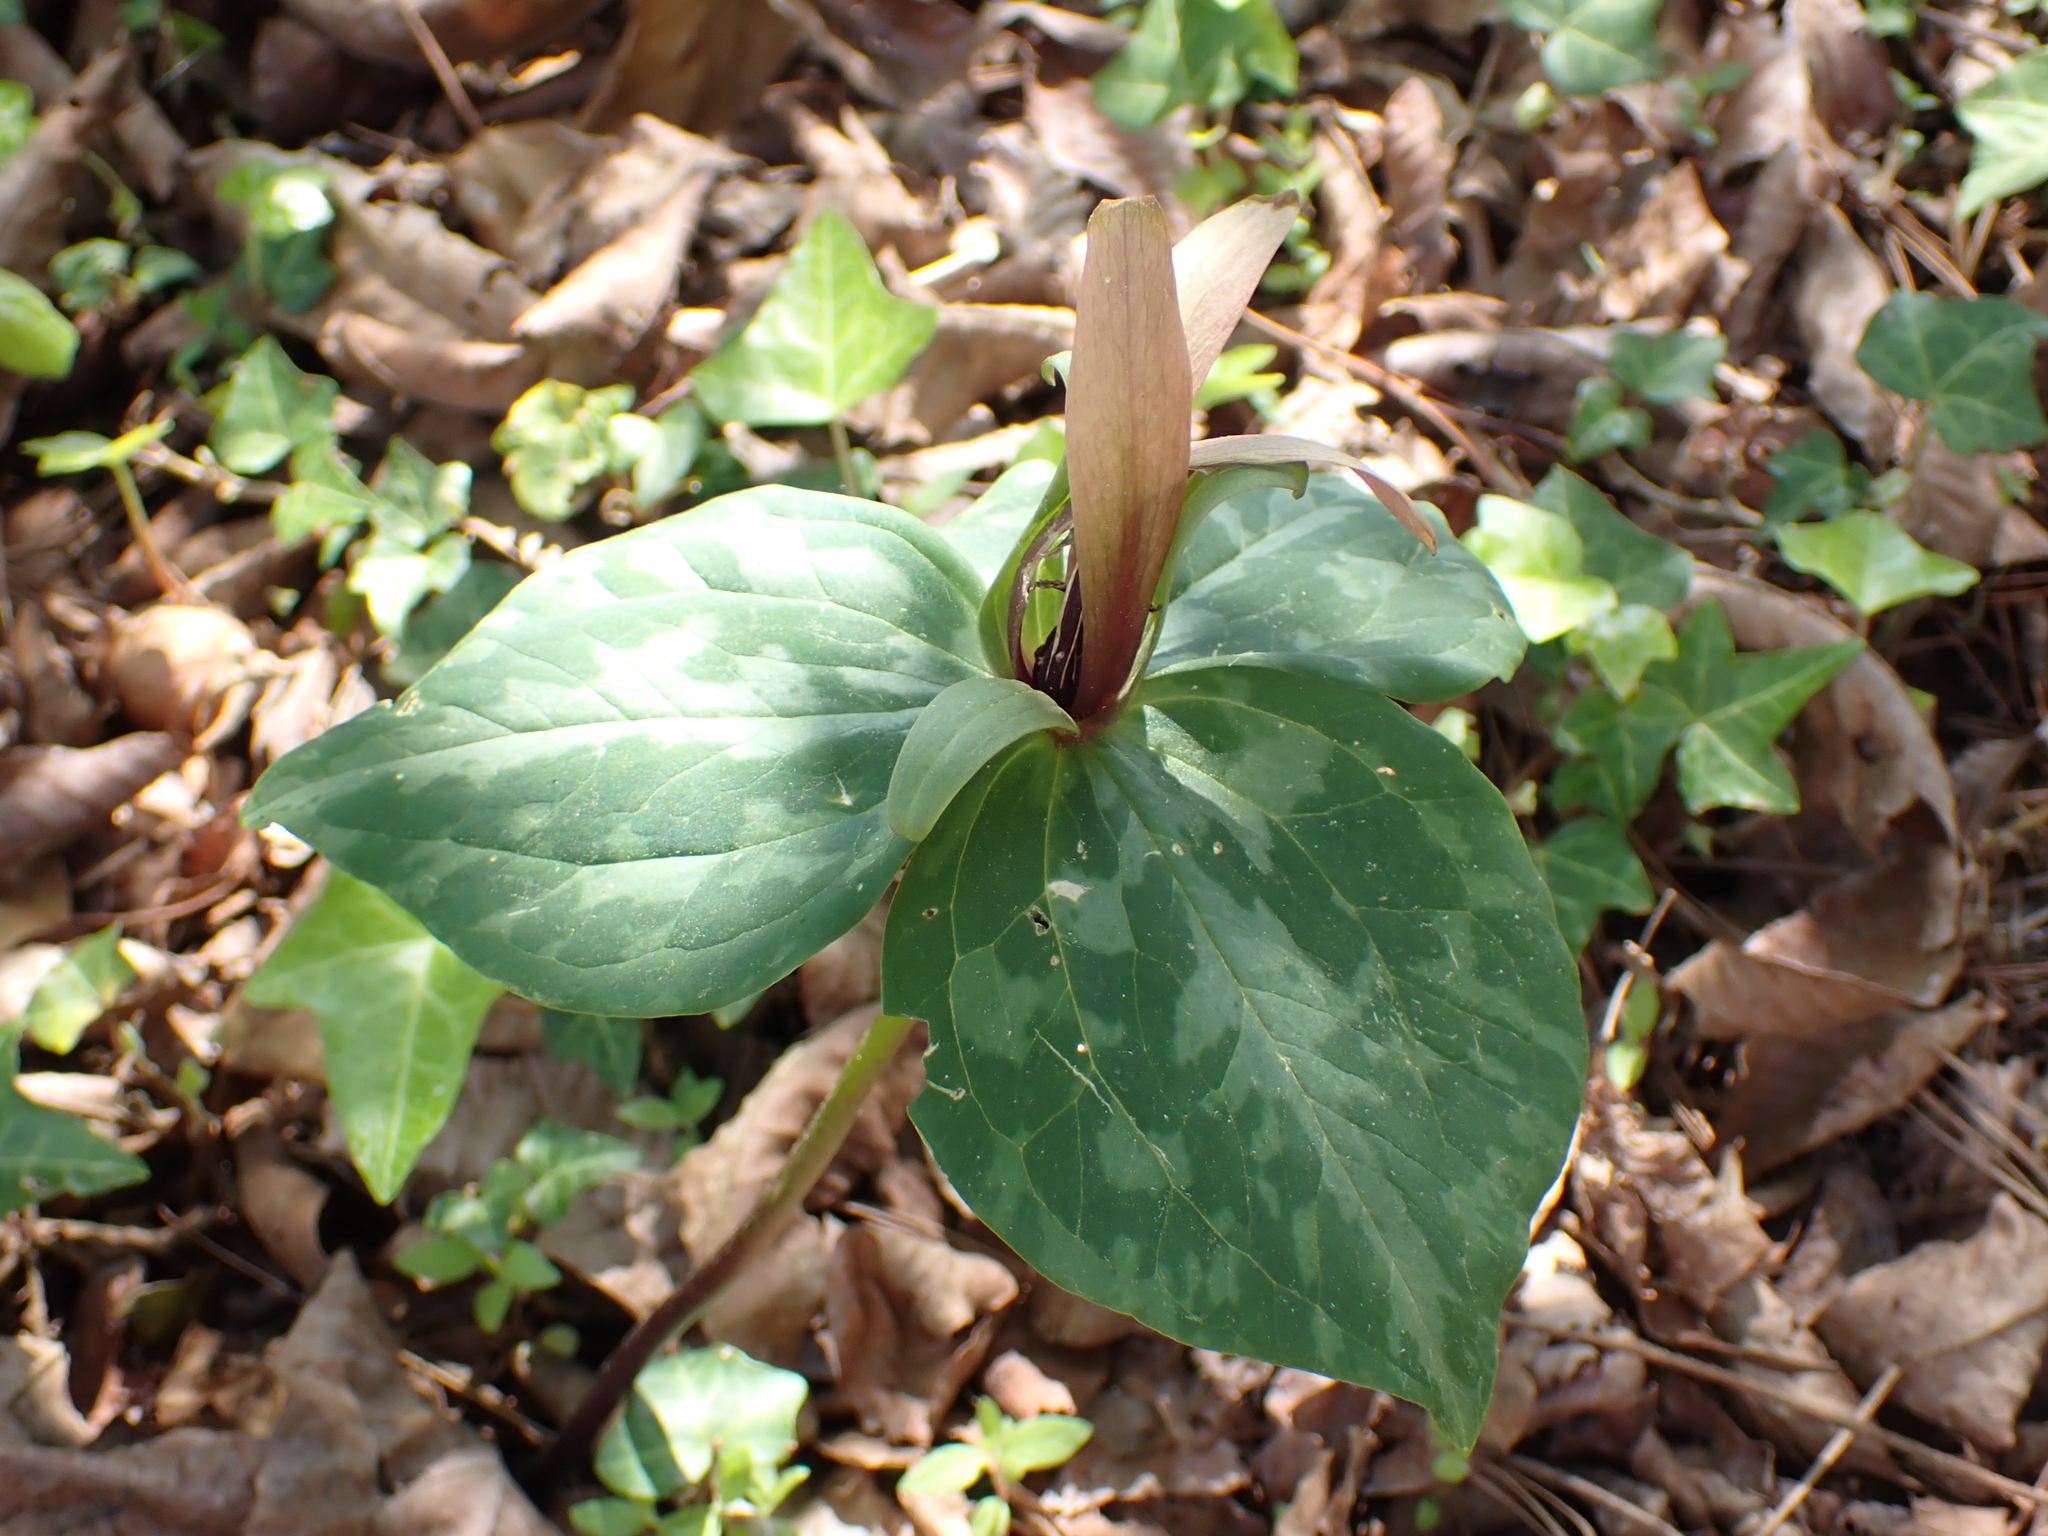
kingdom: Plantae
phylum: Tracheophyta
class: Liliopsida
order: Liliales
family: Melanthiaceae
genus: Trillium
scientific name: Trillium cuneatum
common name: Cuneate trillium
